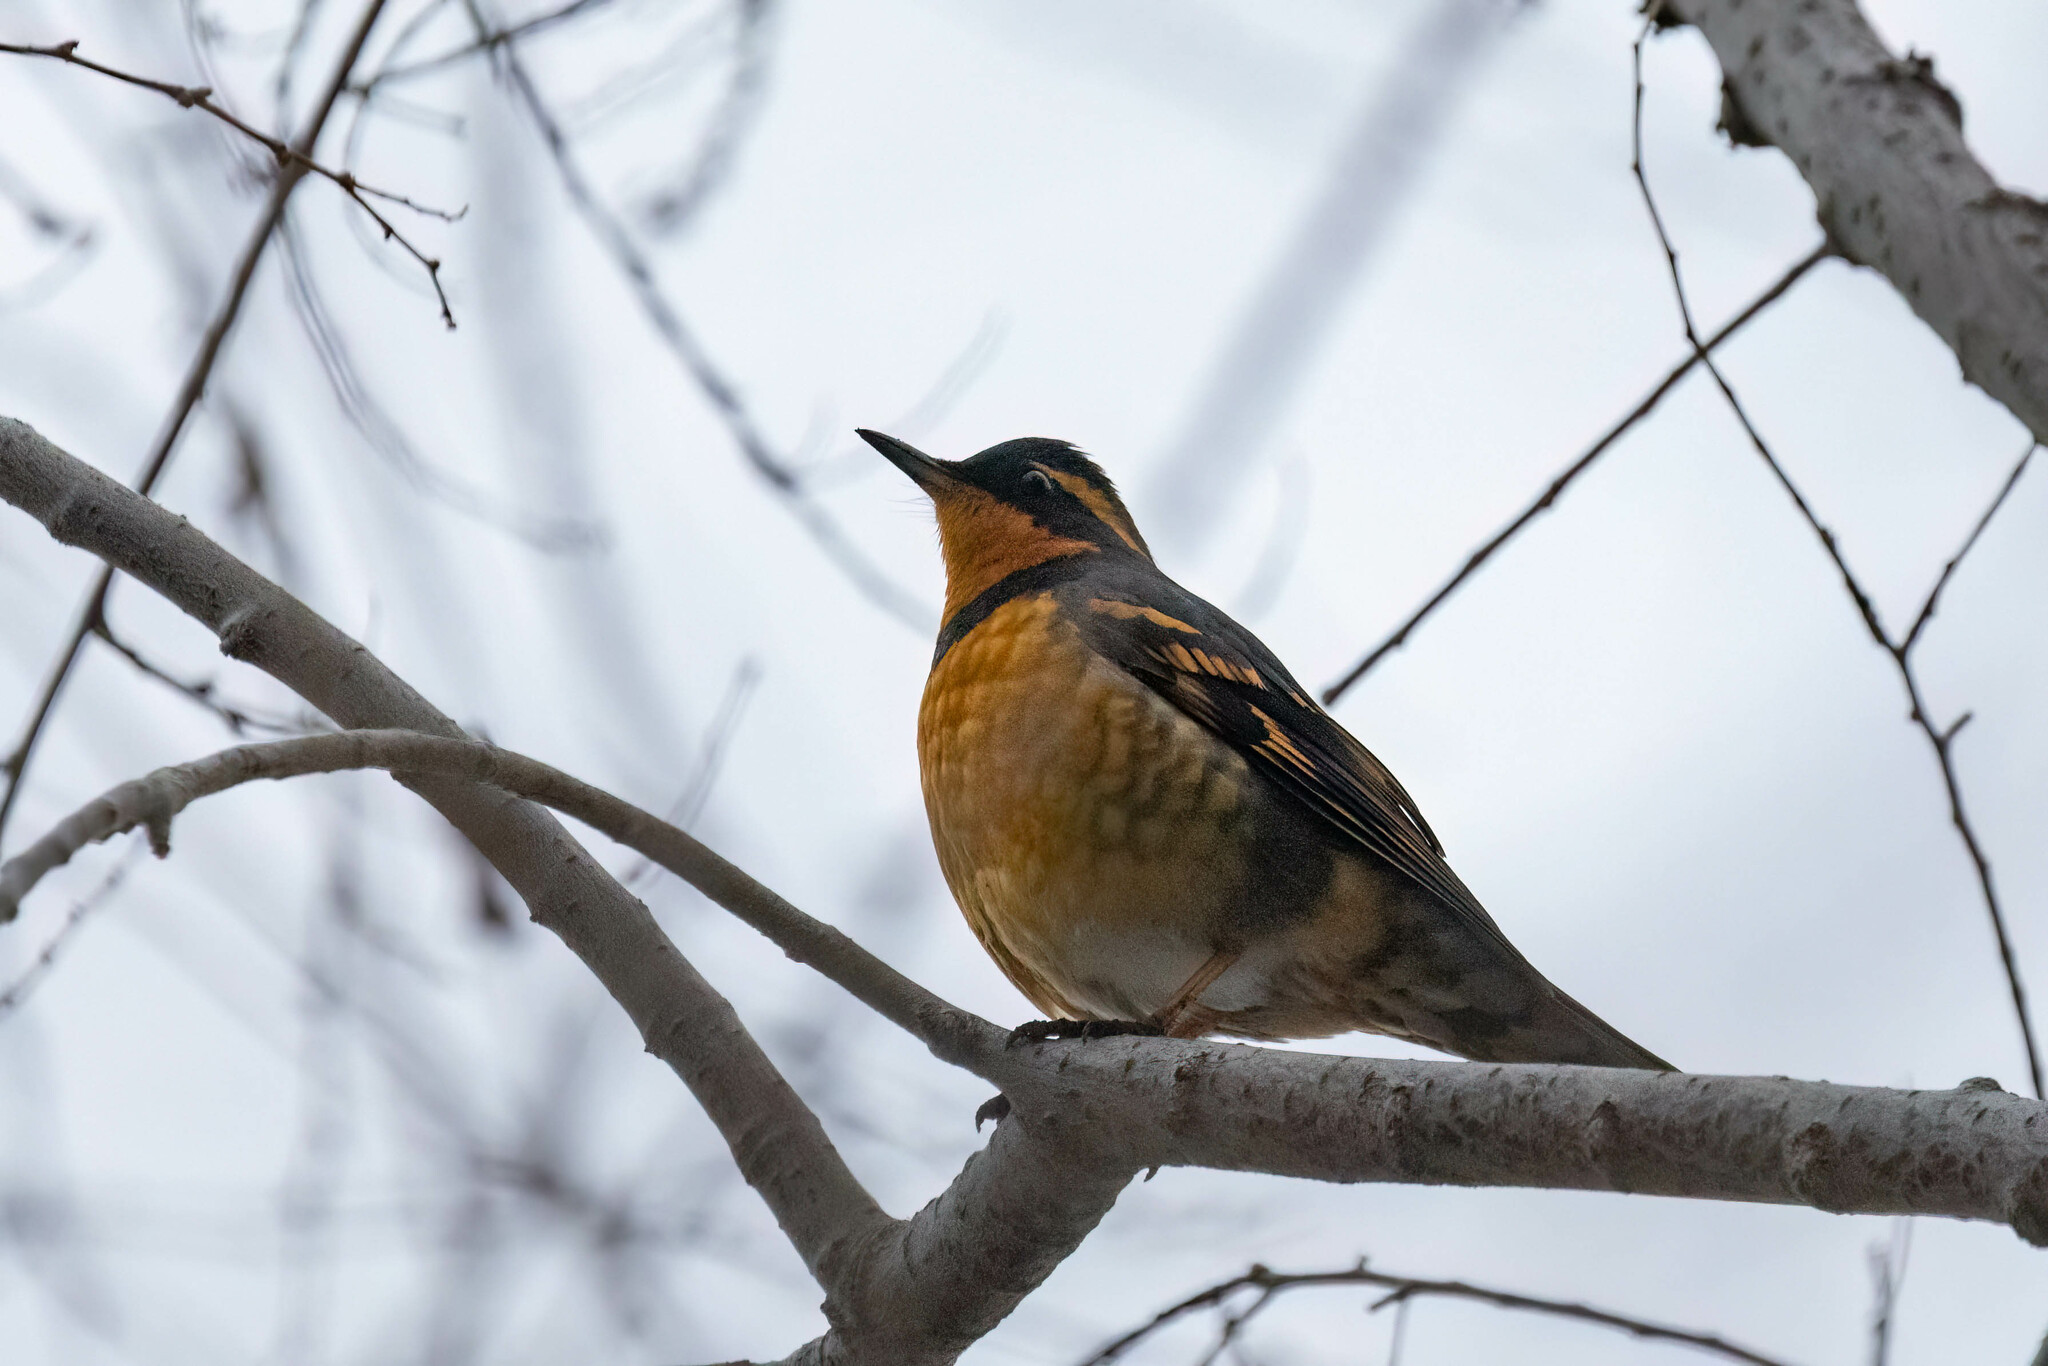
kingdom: Animalia
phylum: Chordata
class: Aves
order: Passeriformes
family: Turdidae
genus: Ixoreus
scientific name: Ixoreus naevius
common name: Varied thrush
